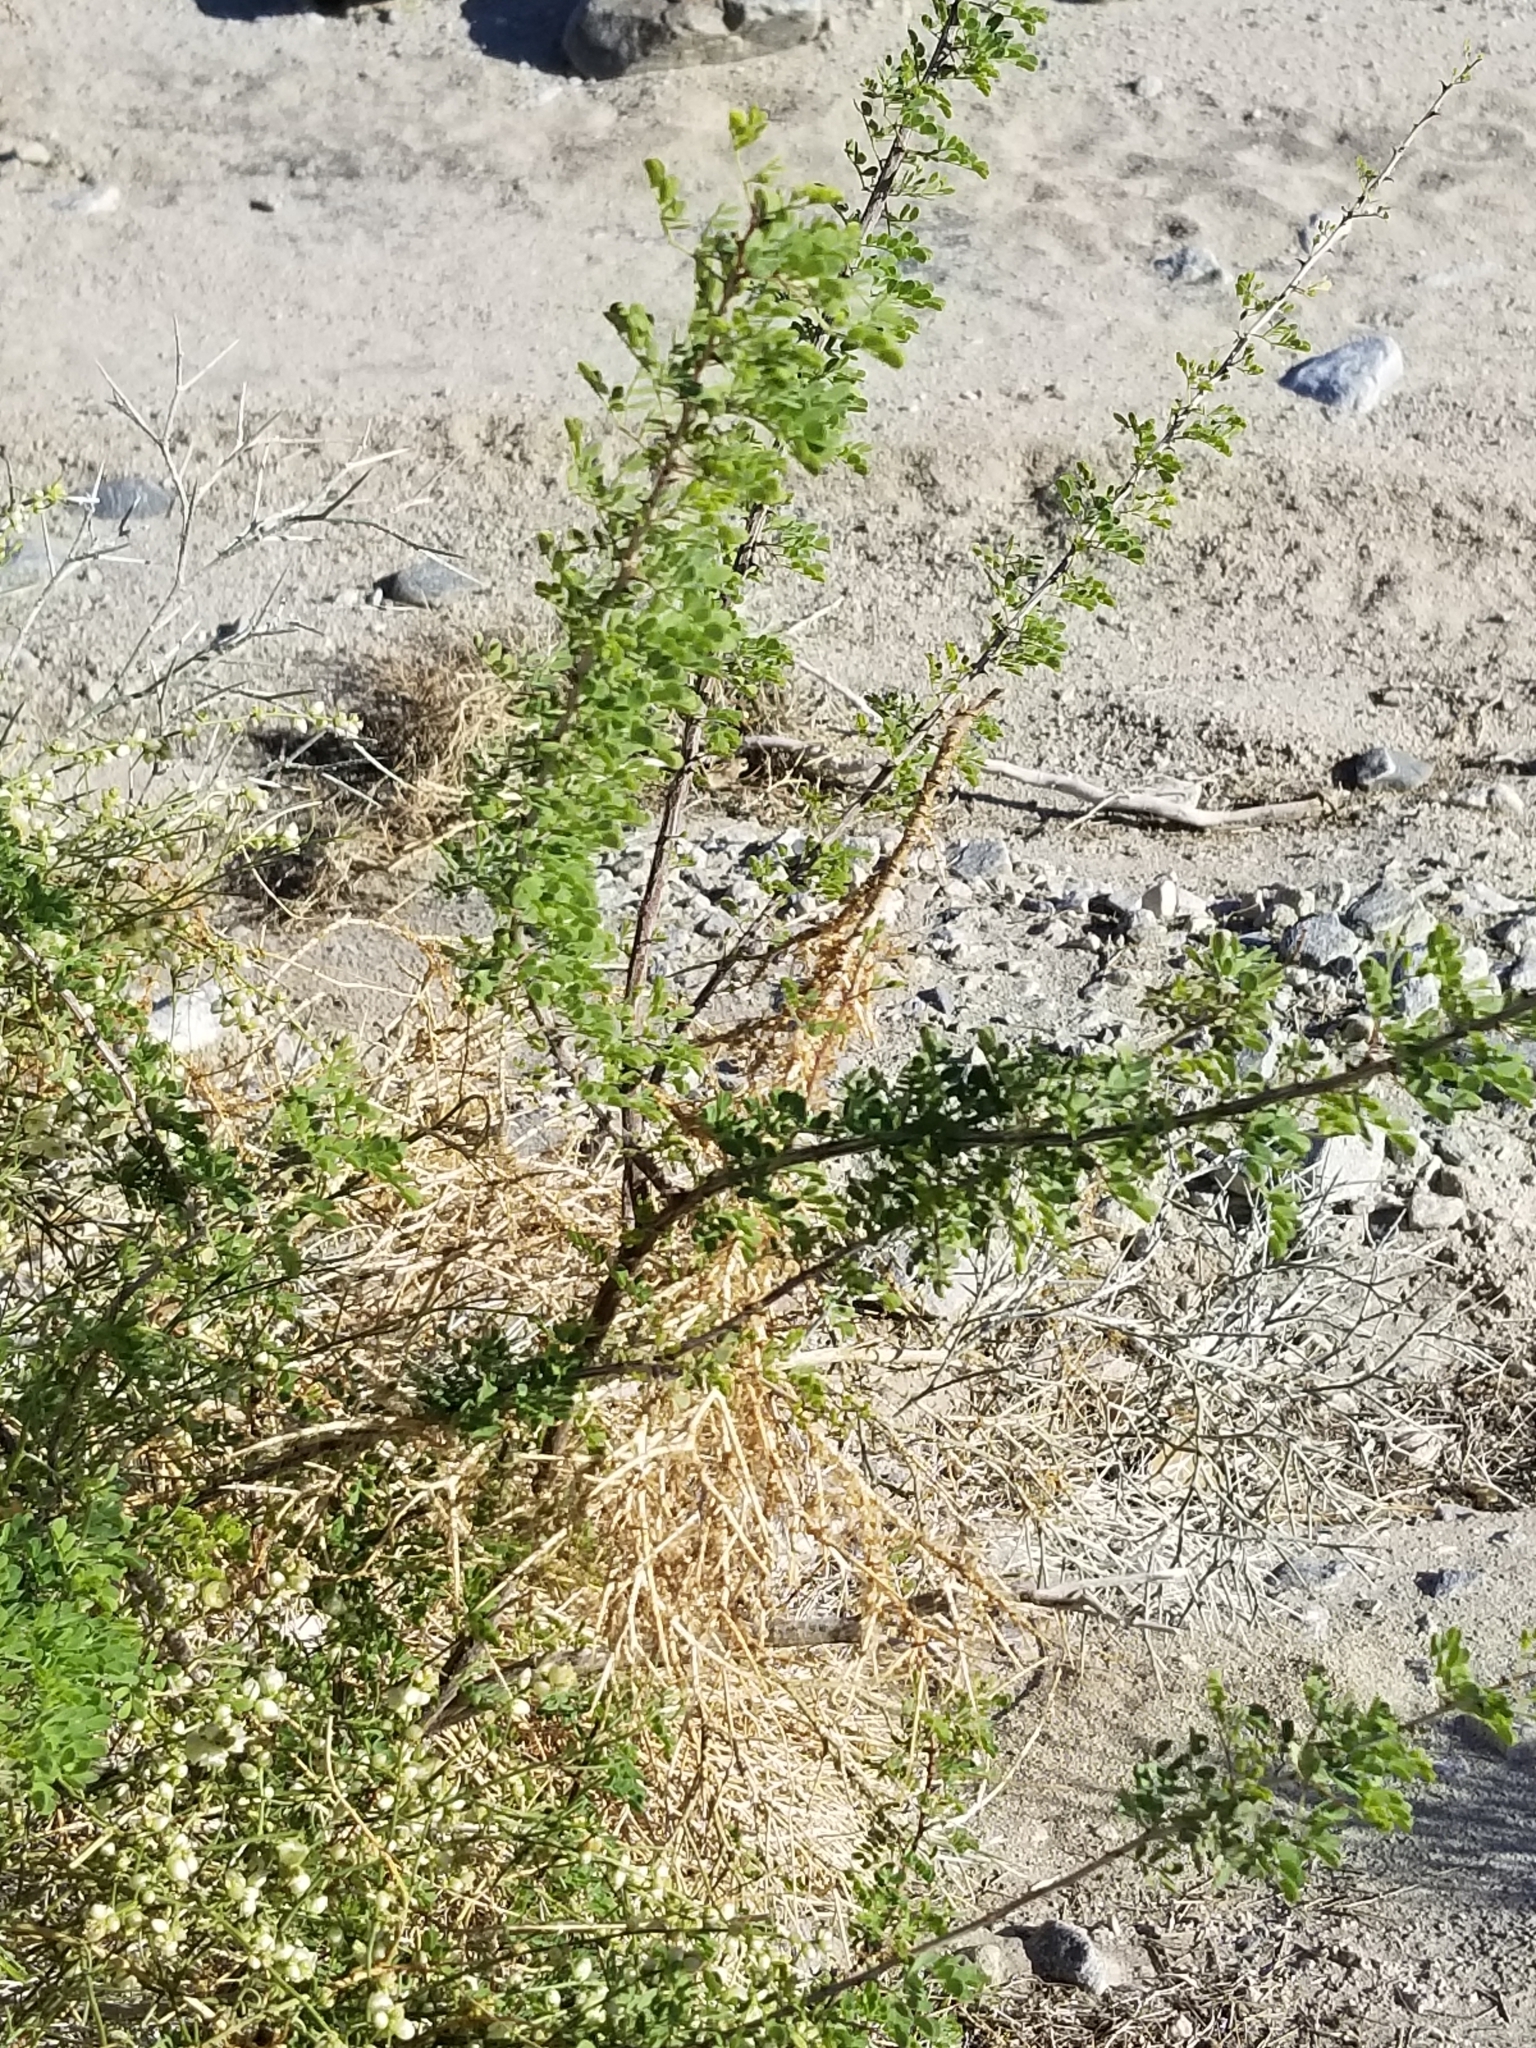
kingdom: Plantae
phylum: Tracheophyta
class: Magnoliopsida
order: Fabales
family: Fabaceae
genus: Senegalia
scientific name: Senegalia greggii
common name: Texas-mimosa
